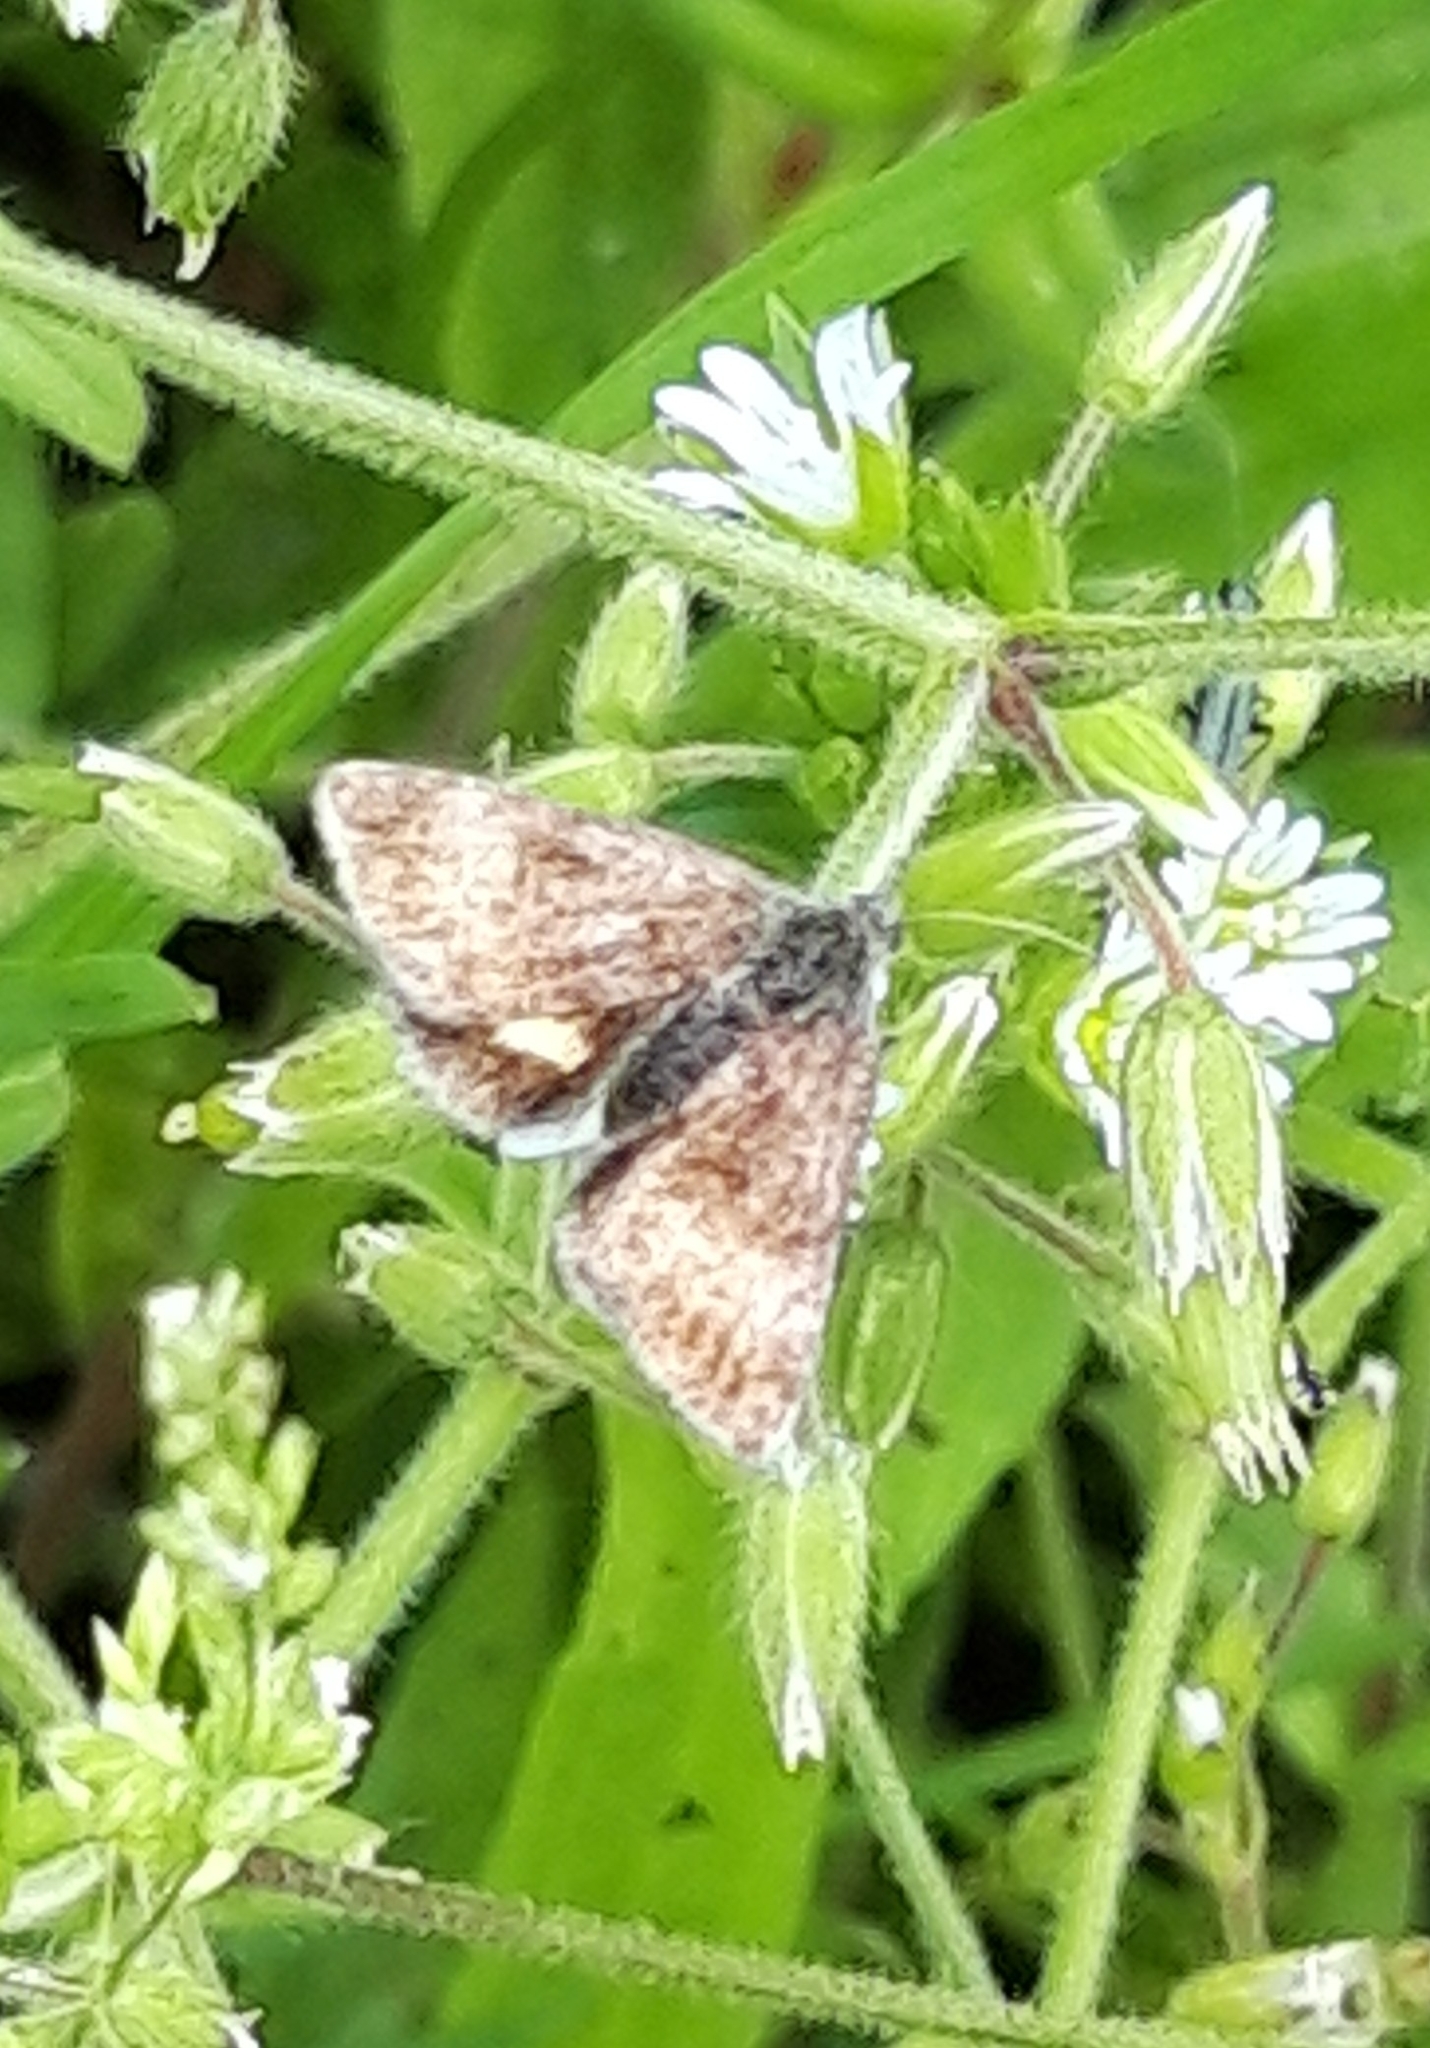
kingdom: Animalia
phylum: Arthropoda
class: Insecta
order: Lepidoptera
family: Noctuidae
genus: Panemeria
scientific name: Panemeria tenebrata
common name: Small yellow underwing
